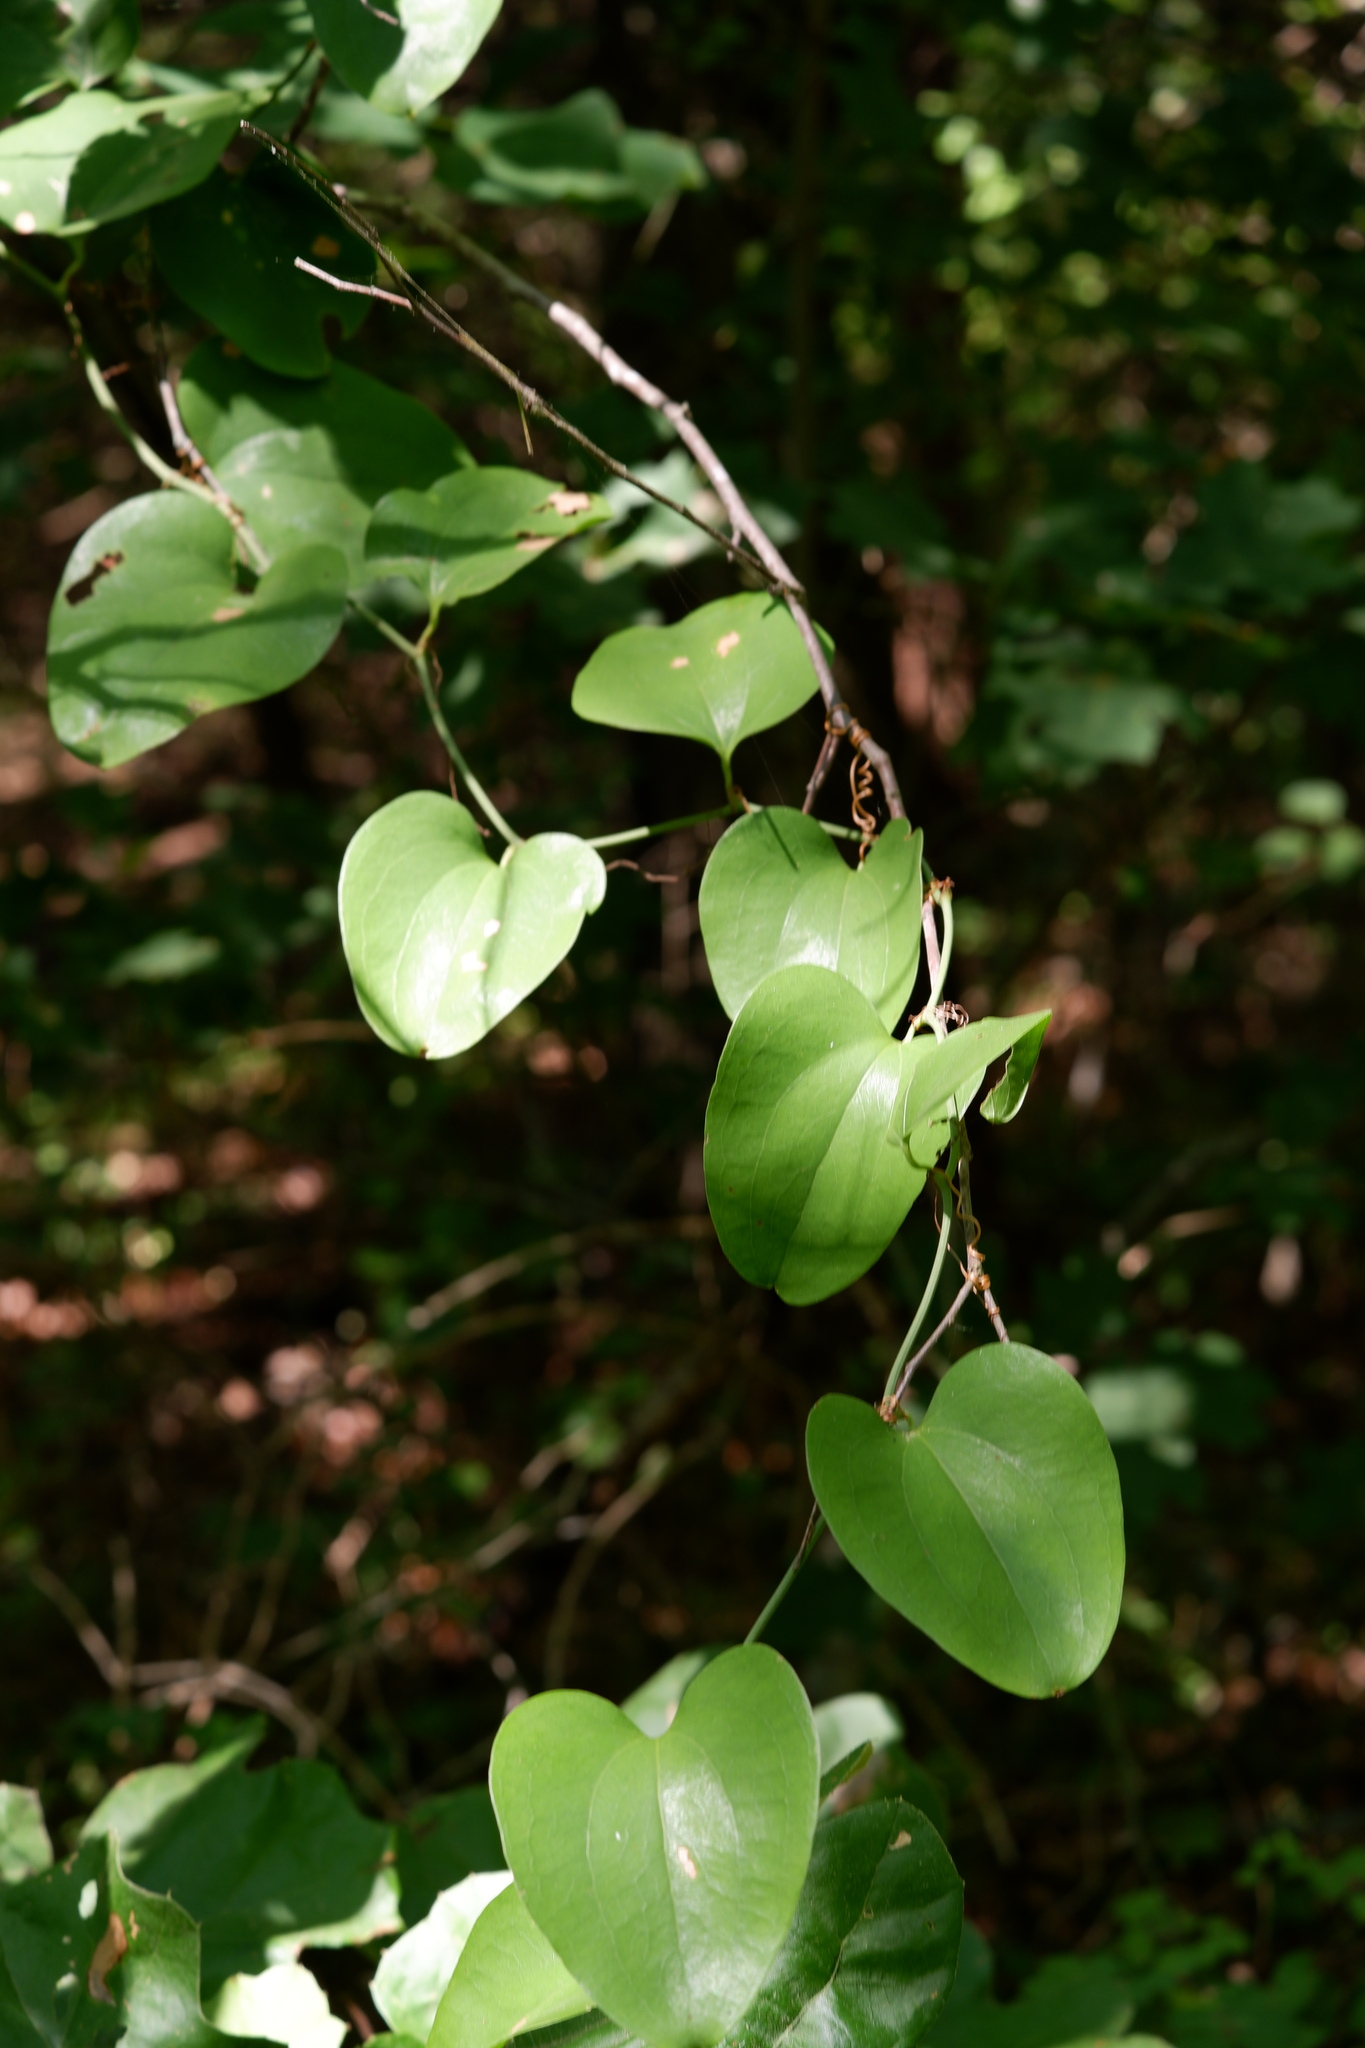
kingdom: Plantae
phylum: Tracheophyta
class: Liliopsida
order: Liliales
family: Smilacaceae
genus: Smilax
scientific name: Smilax rotundifolia
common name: Bullbriar
